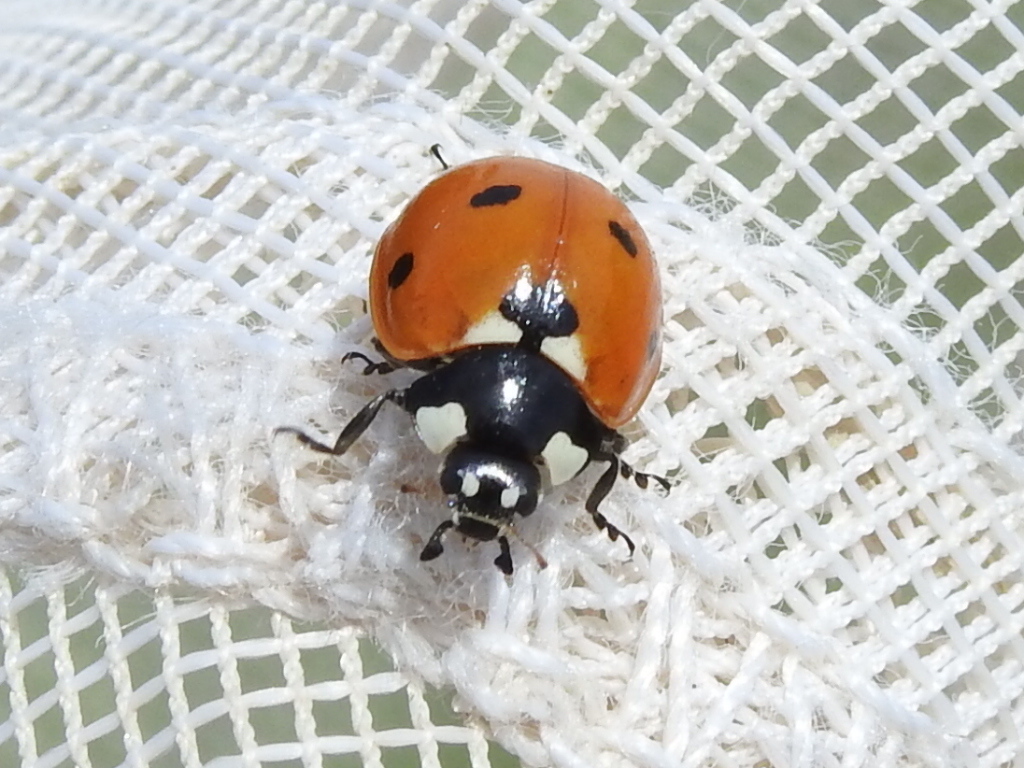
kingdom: Animalia
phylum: Arthropoda
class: Insecta
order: Coleoptera
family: Coccinellidae
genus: Coccinella
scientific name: Coccinella septempunctata
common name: Sevenspotted lady beetle
